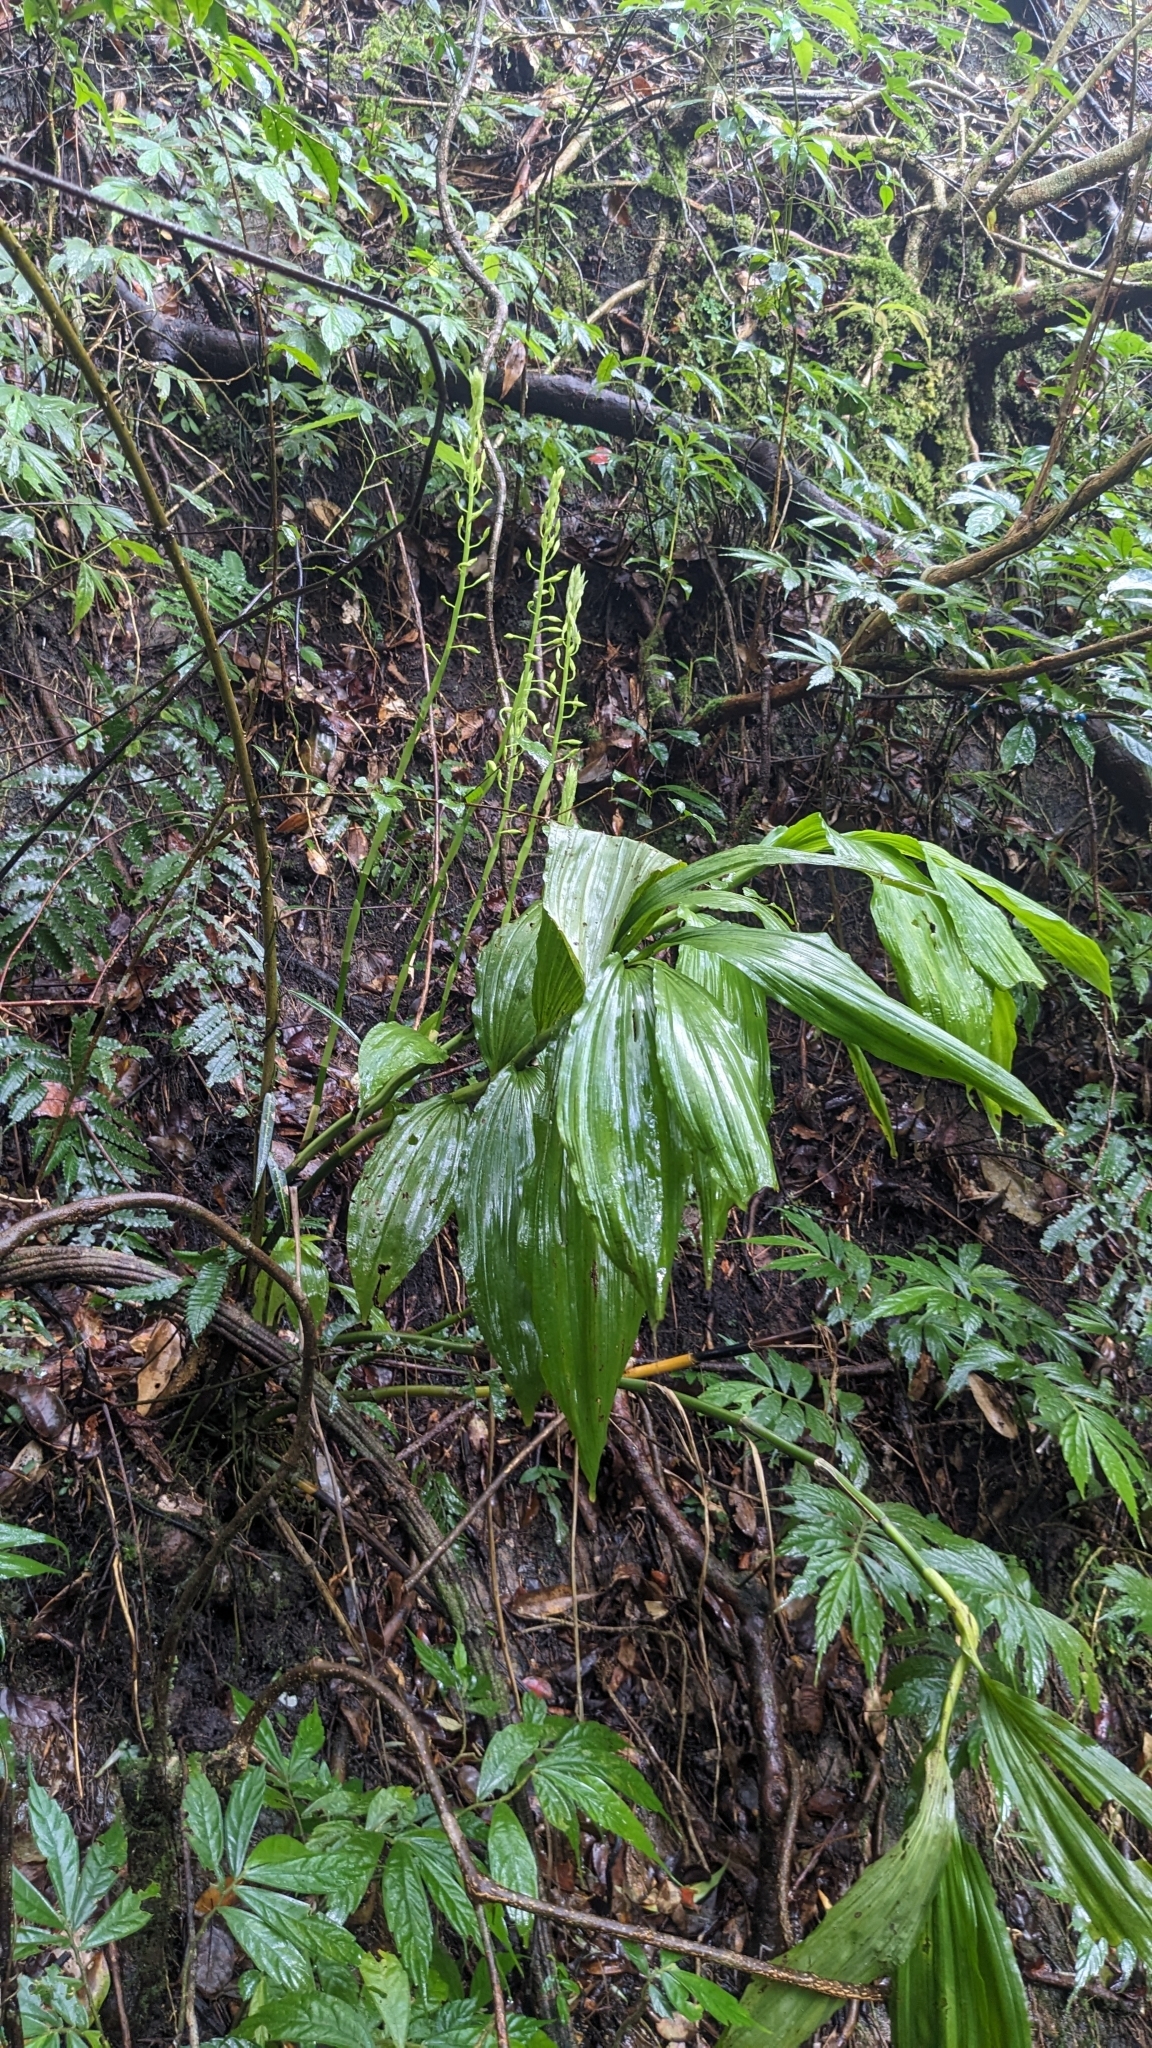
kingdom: Plantae
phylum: Tracheophyta
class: Liliopsida
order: Asparagales
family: Orchidaceae
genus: Calanthe
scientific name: Calanthe obcordata
